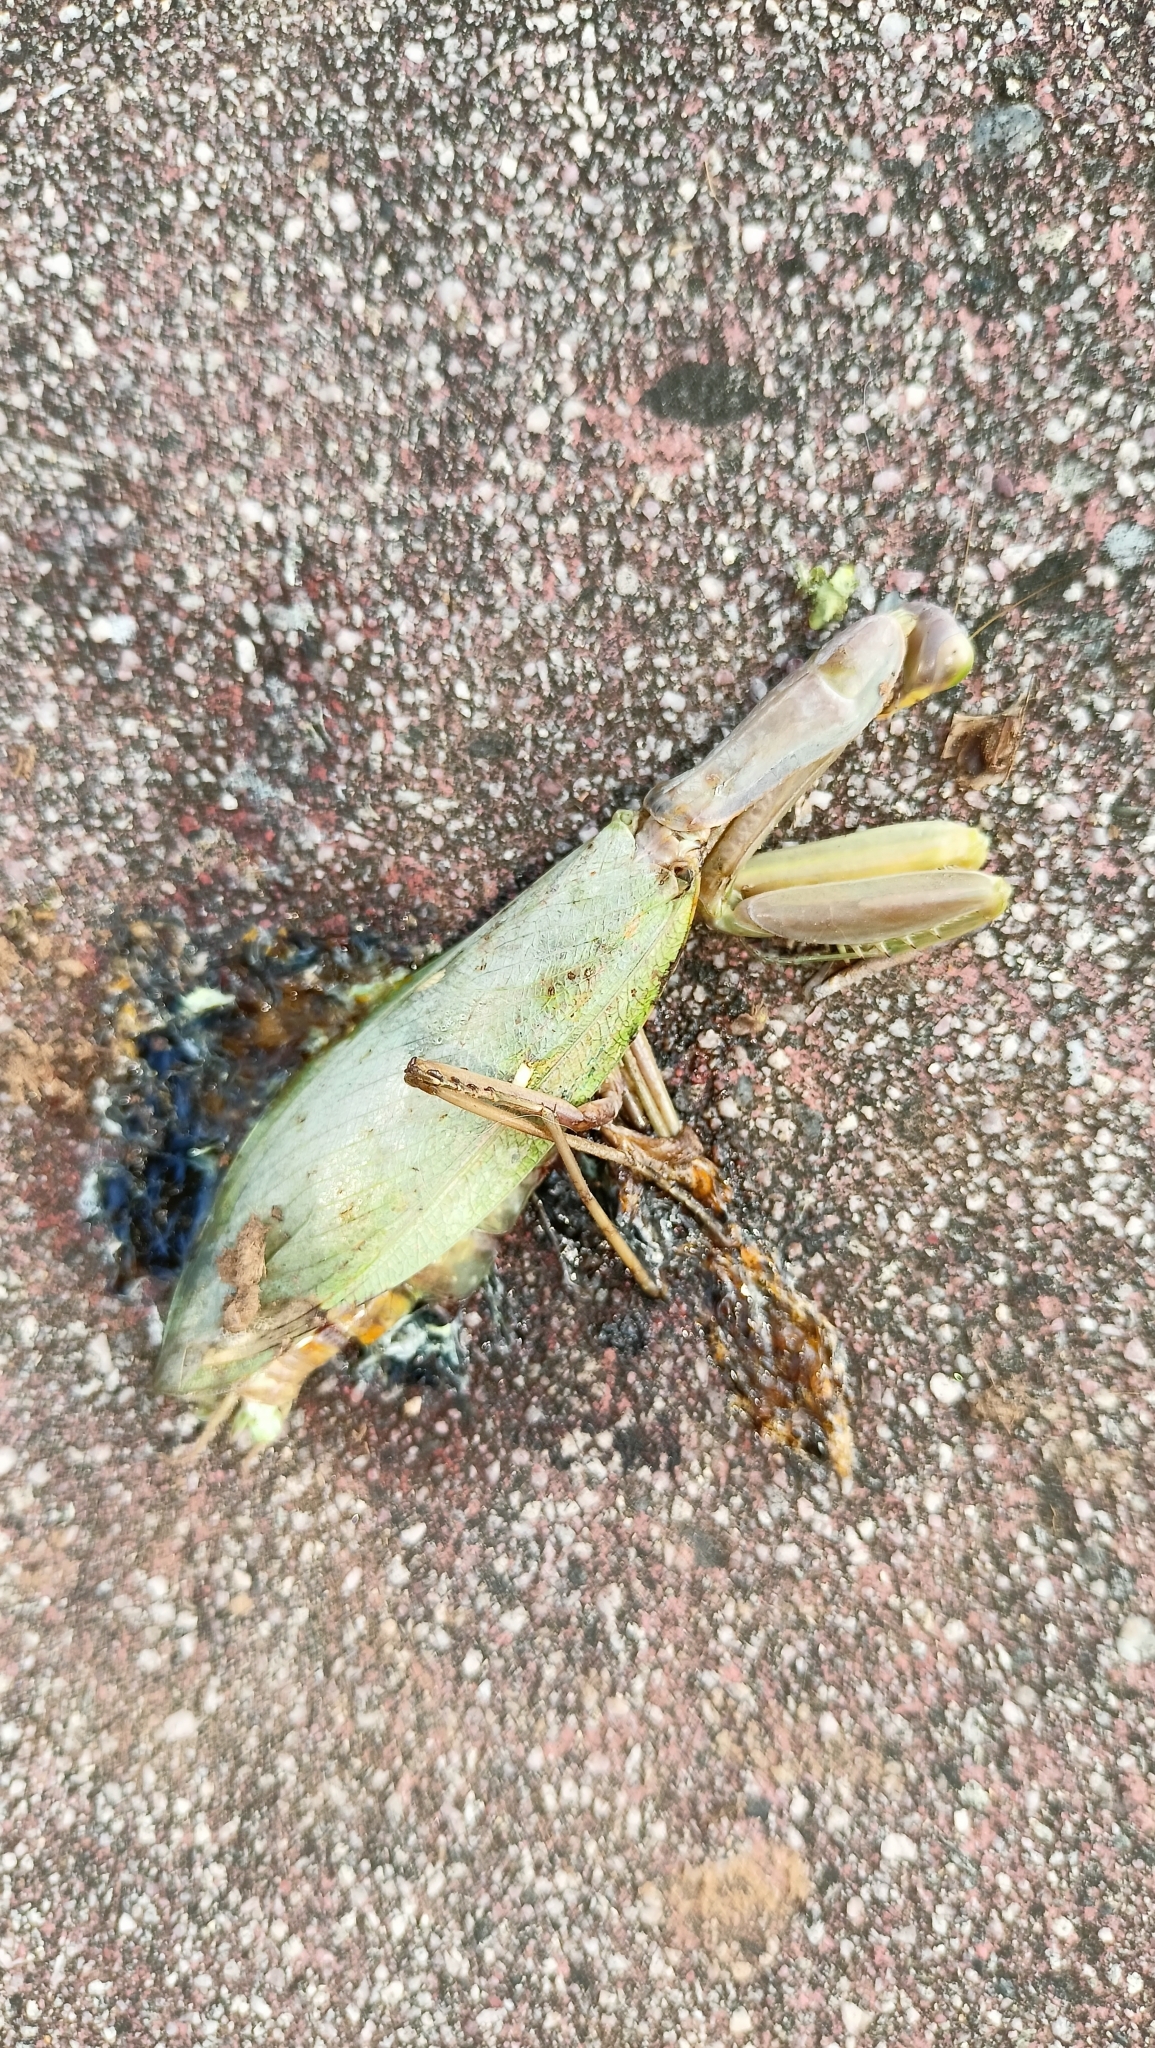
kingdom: Animalia
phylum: Arthropoda
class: Insecta
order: Mantodea
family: Mantidae
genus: Hierodula
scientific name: Hierodula transcaucasica
